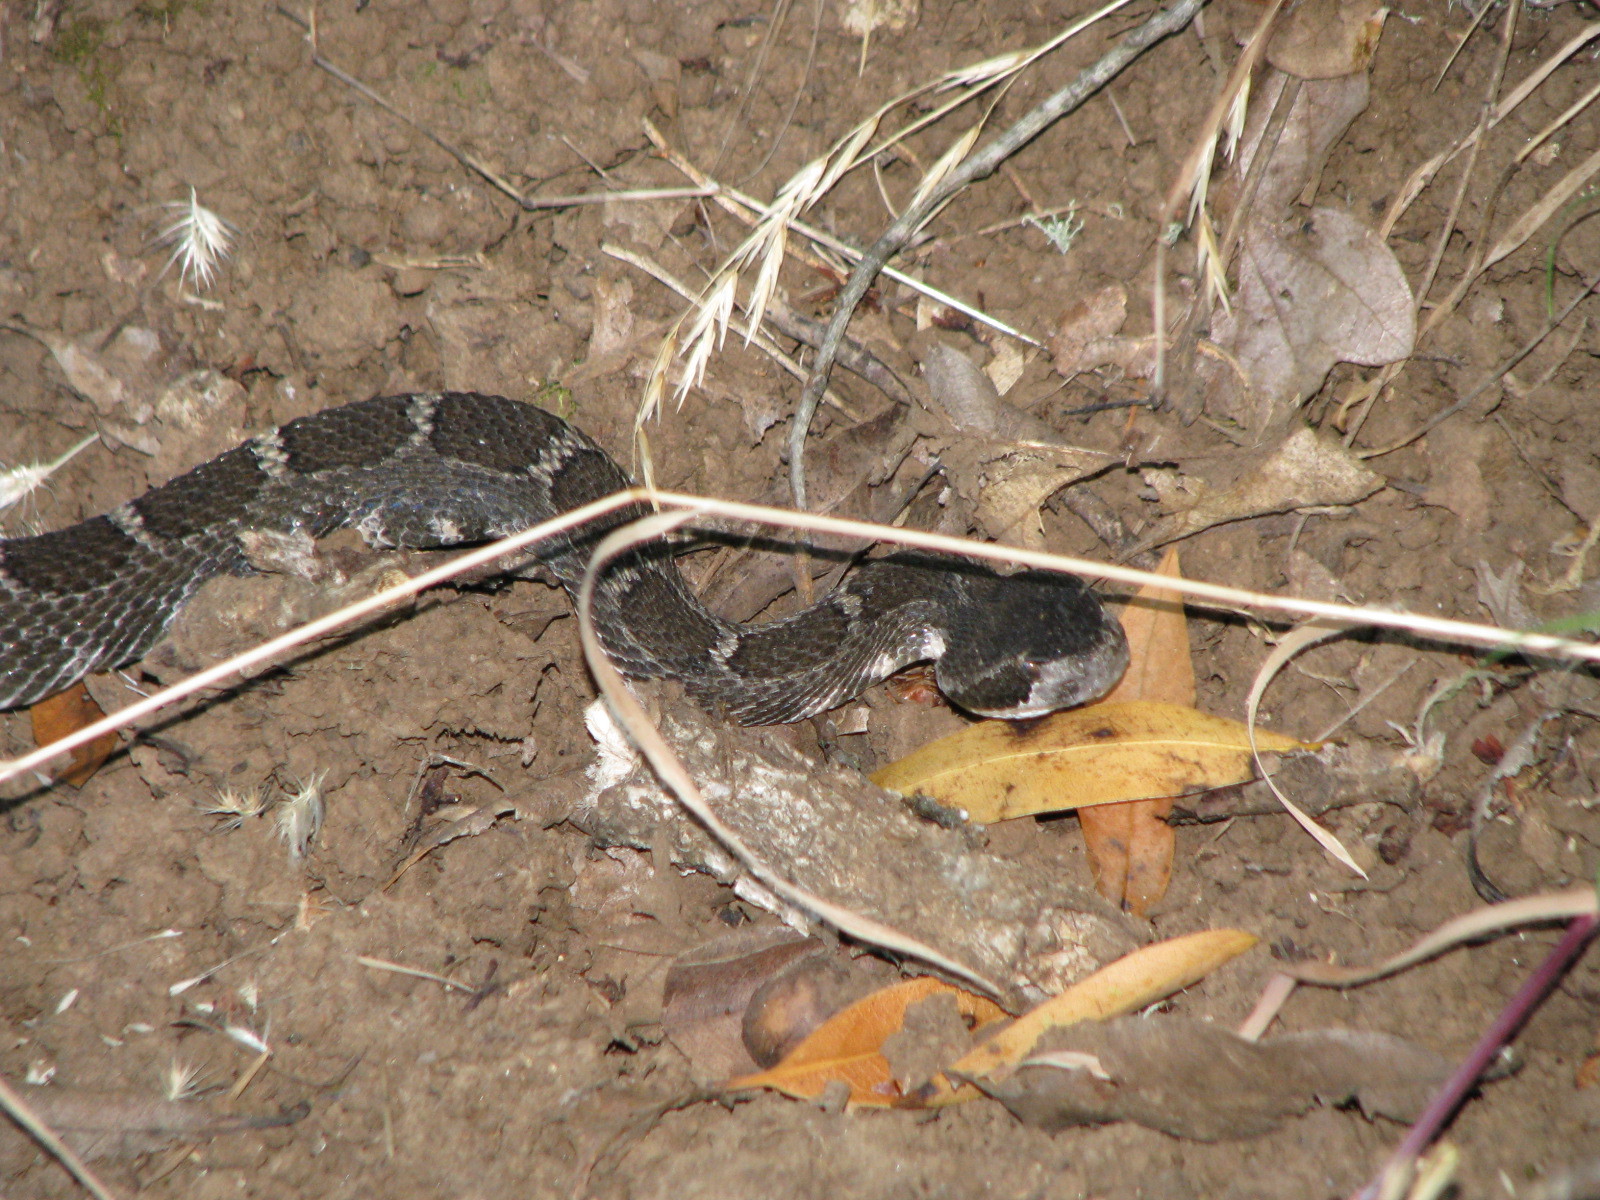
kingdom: Animalia
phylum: Chordata
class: Squamata
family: Viperidae
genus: Crotalus
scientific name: Crotalus oreganus
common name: Abyssus
